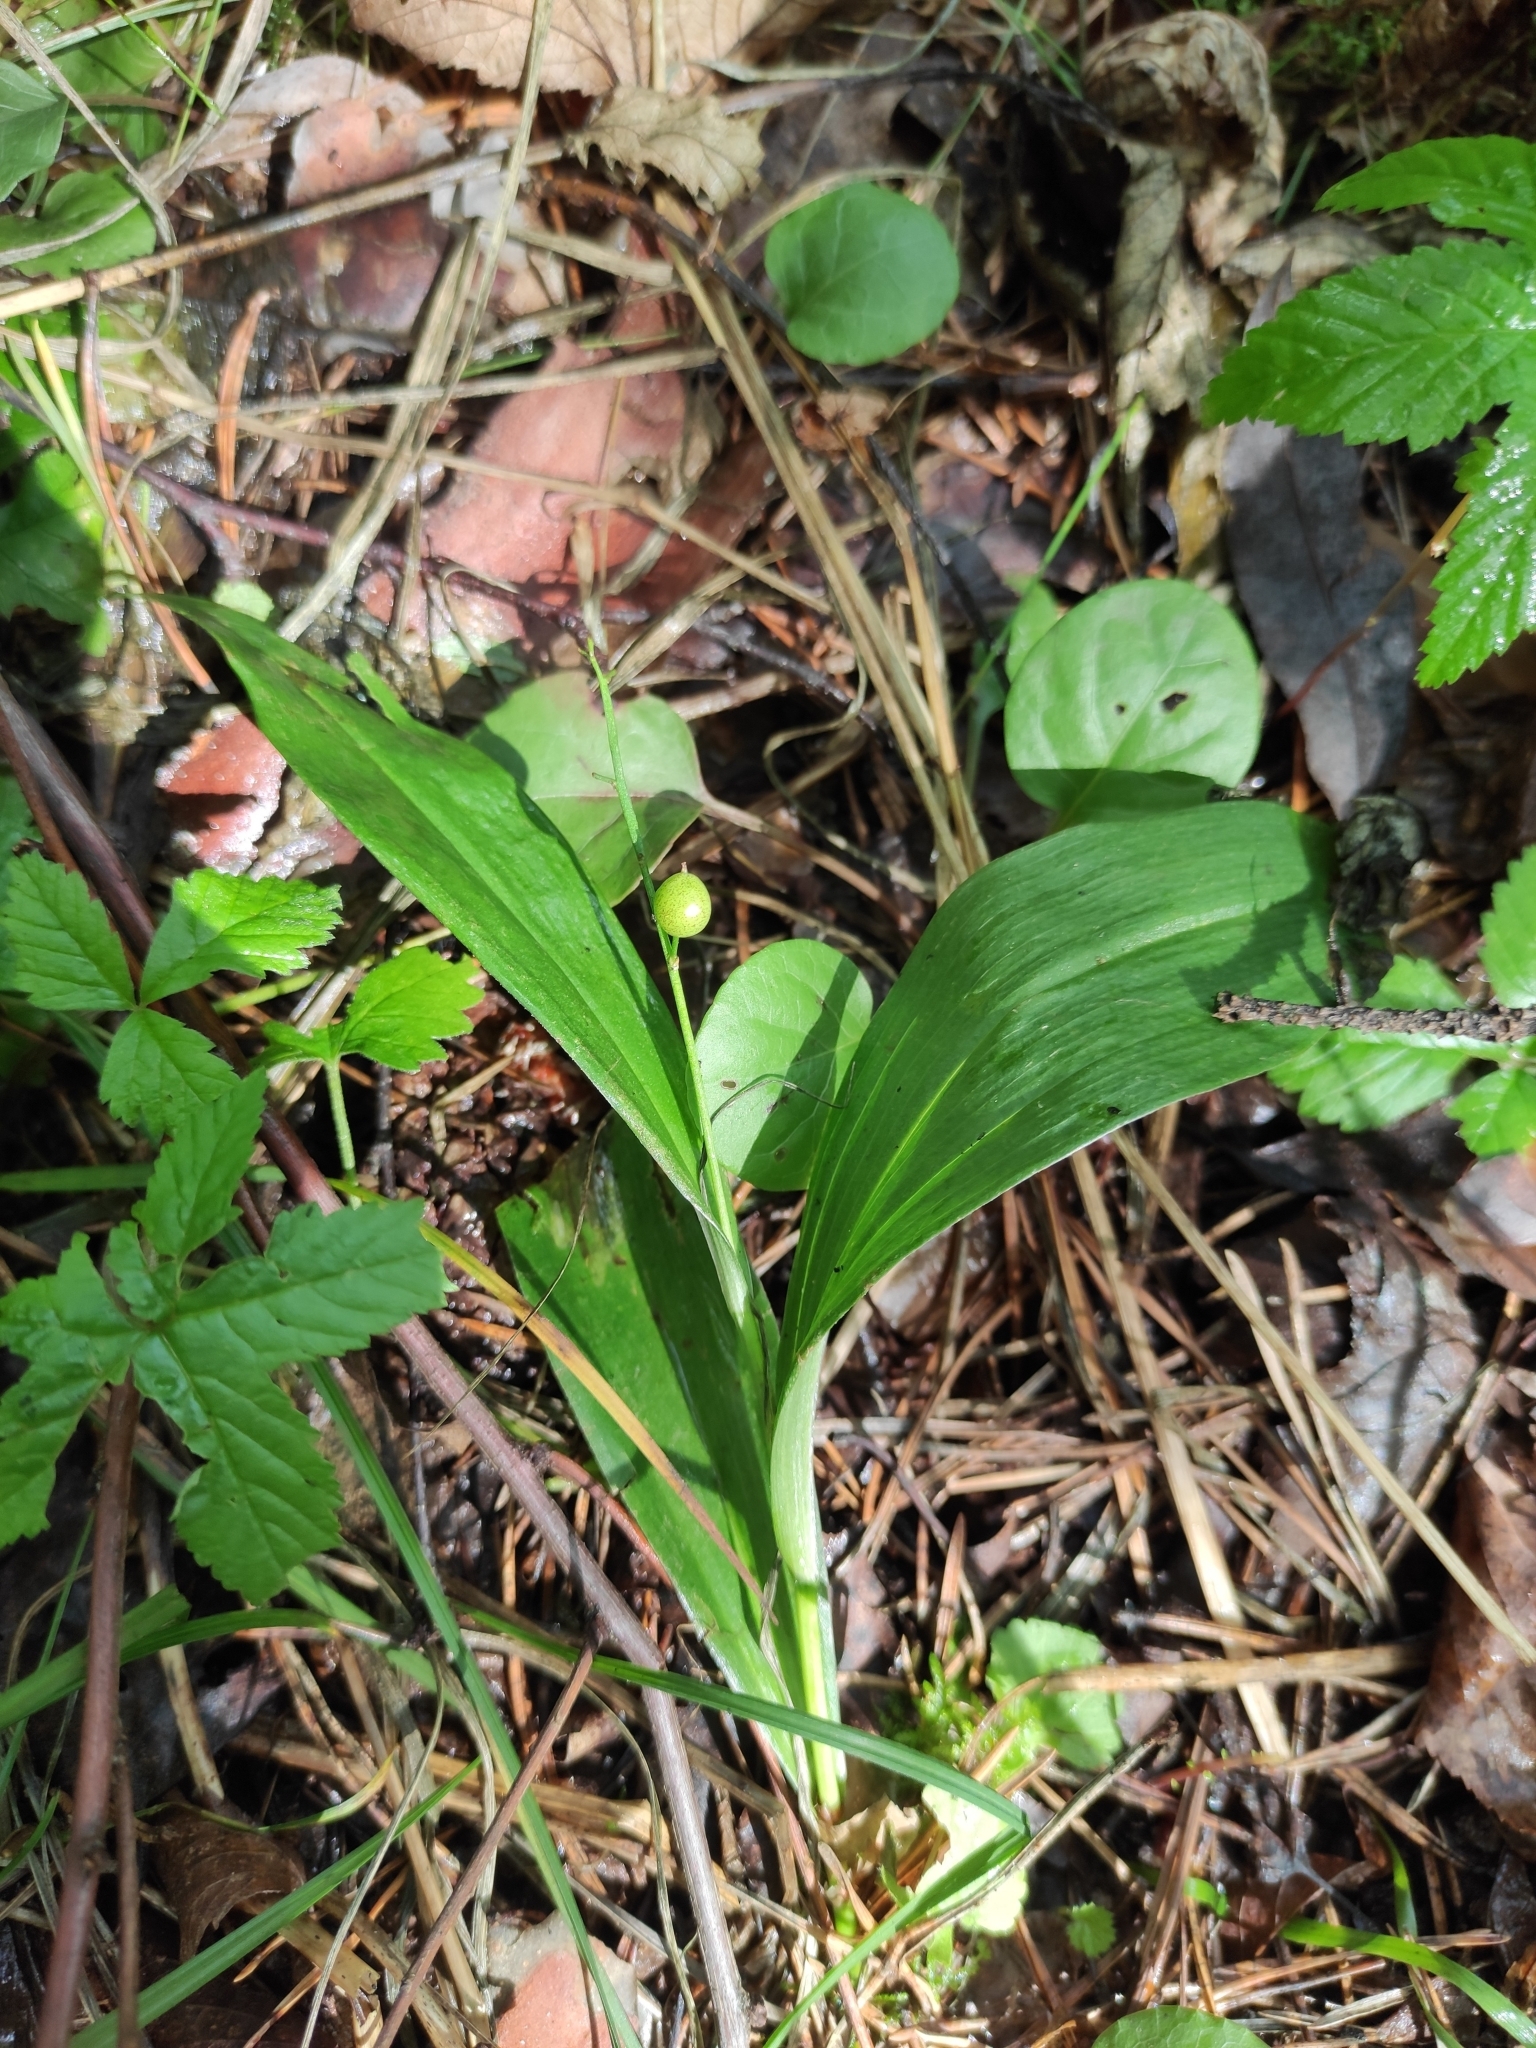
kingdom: Plantae
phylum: Tracheophyta
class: Liliopsida
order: Asparagales
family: Asparagaceae
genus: Maianthemum
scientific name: Maianthemum trifolium
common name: Swamp false solomon's seal
